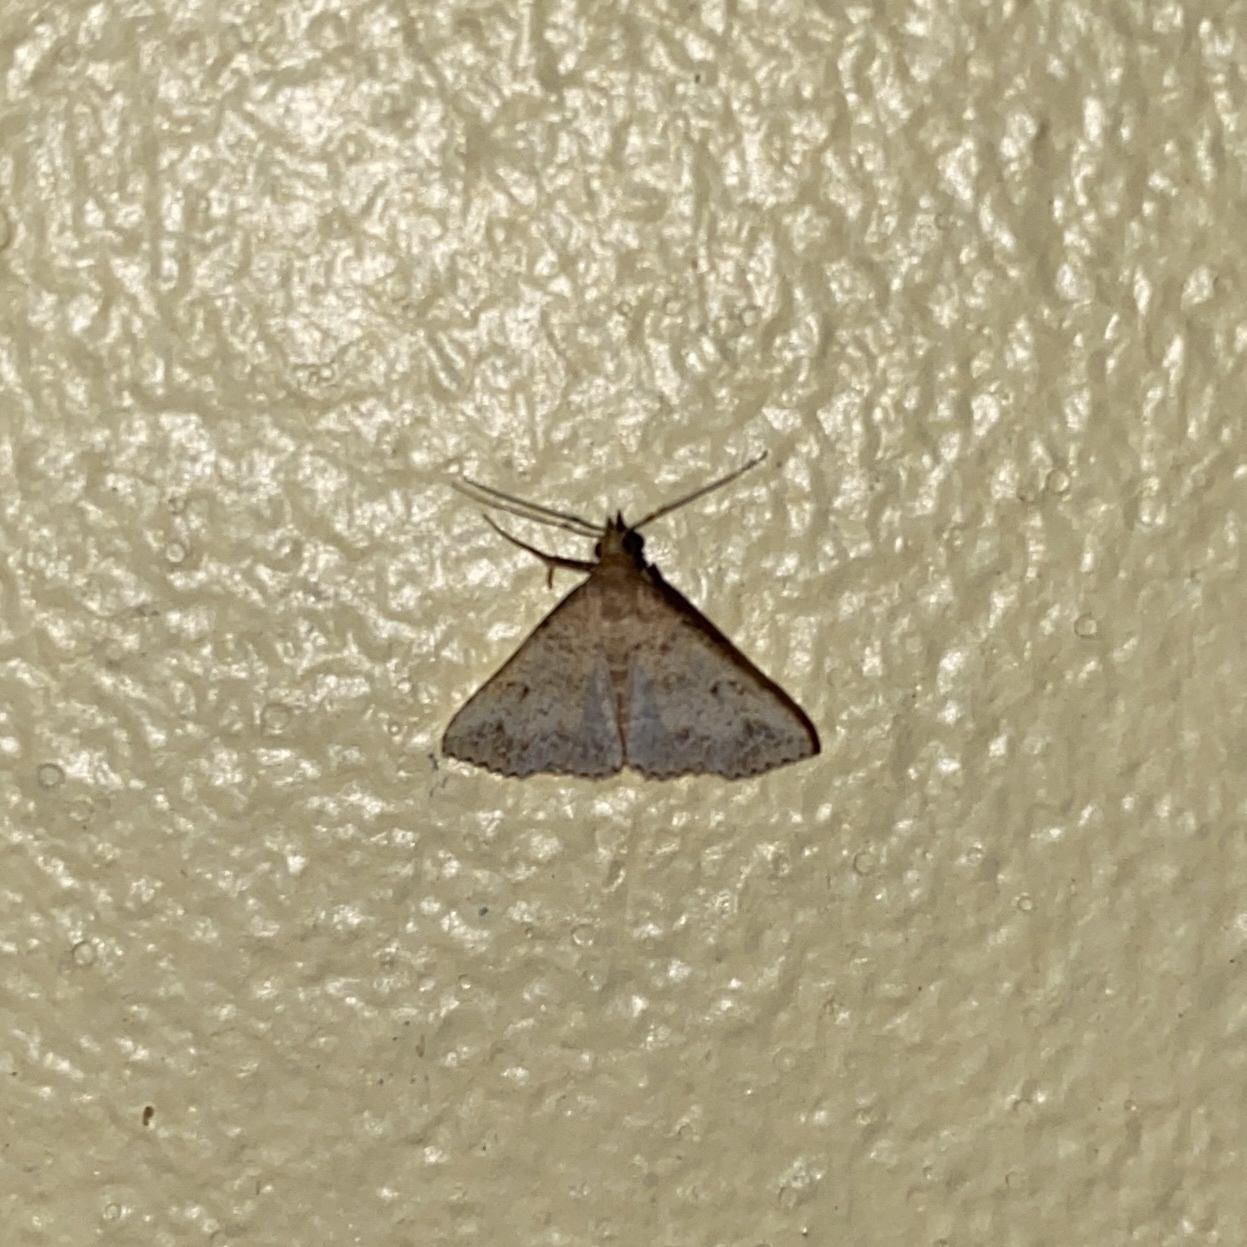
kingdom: Animalia
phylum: Arthropoda
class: Insecta
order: Lepidoptera
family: Erebidae
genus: Bleptina
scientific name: Bleptina caradrinalis
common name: Bent-winged owlet
